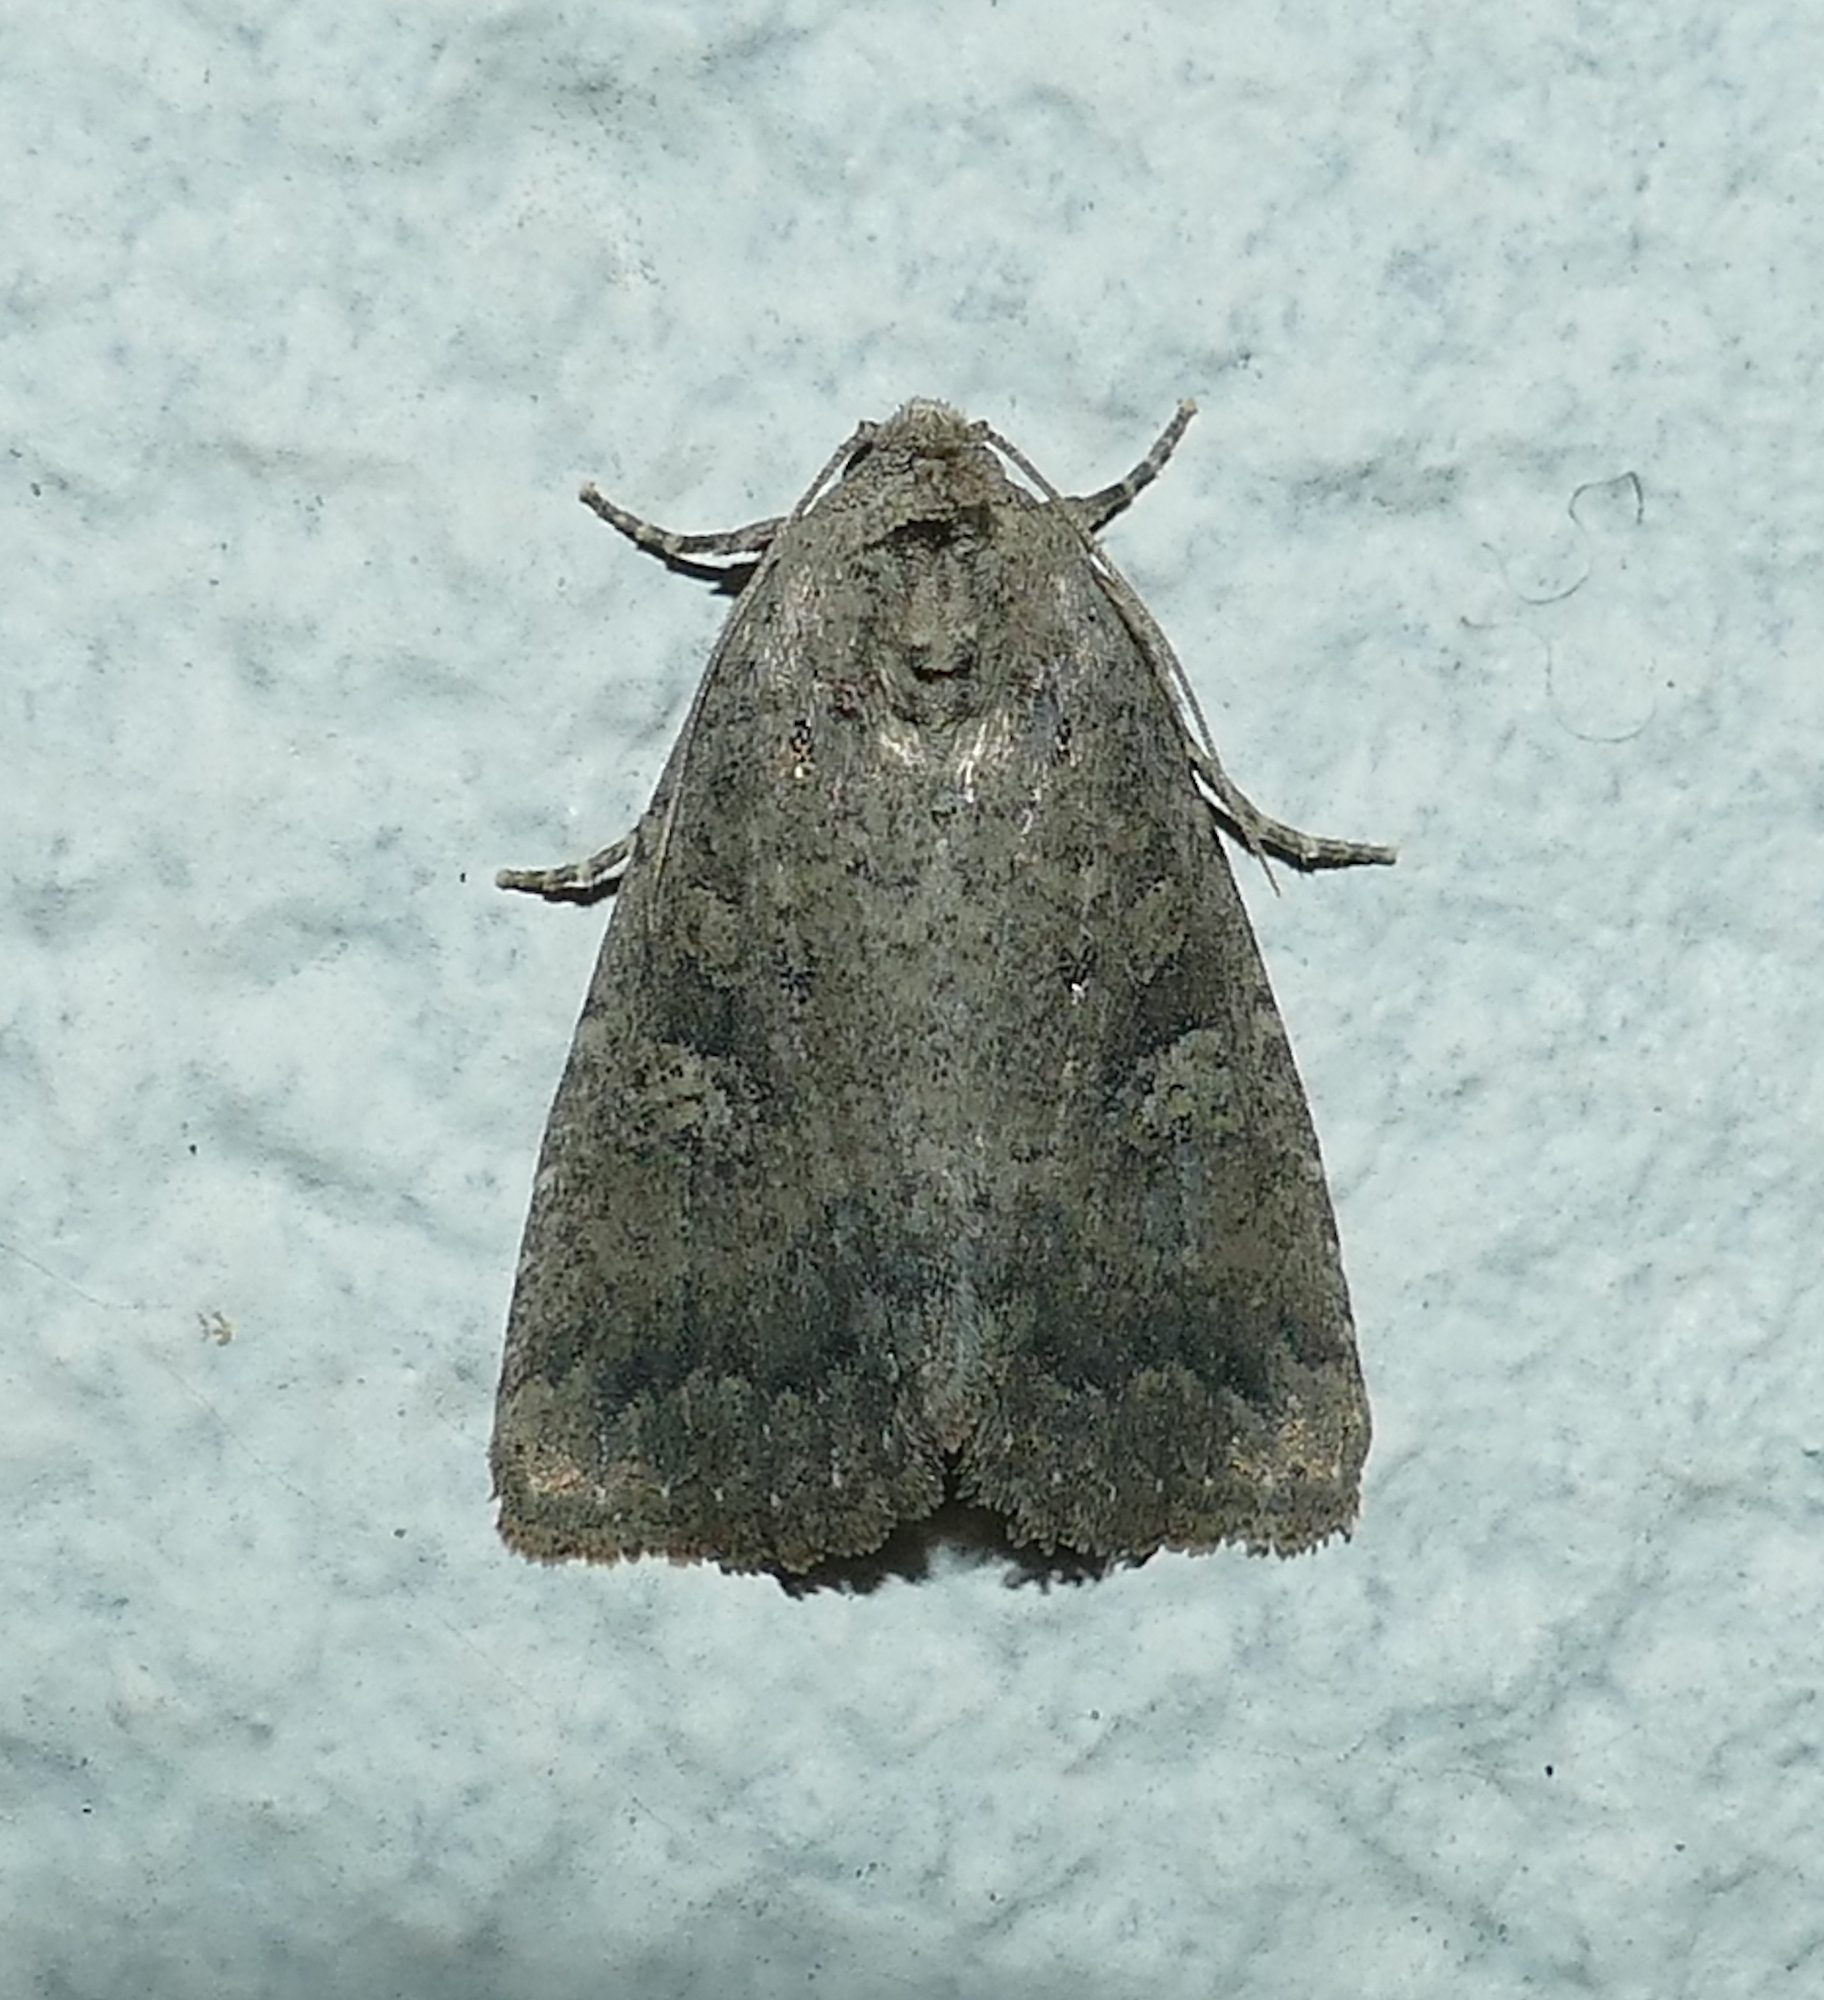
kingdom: Animalia
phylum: Arthropoda
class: Insecta
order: Lepidoptera
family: Noctuidae
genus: Condica
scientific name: Condica sutor
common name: Cobbler moth
